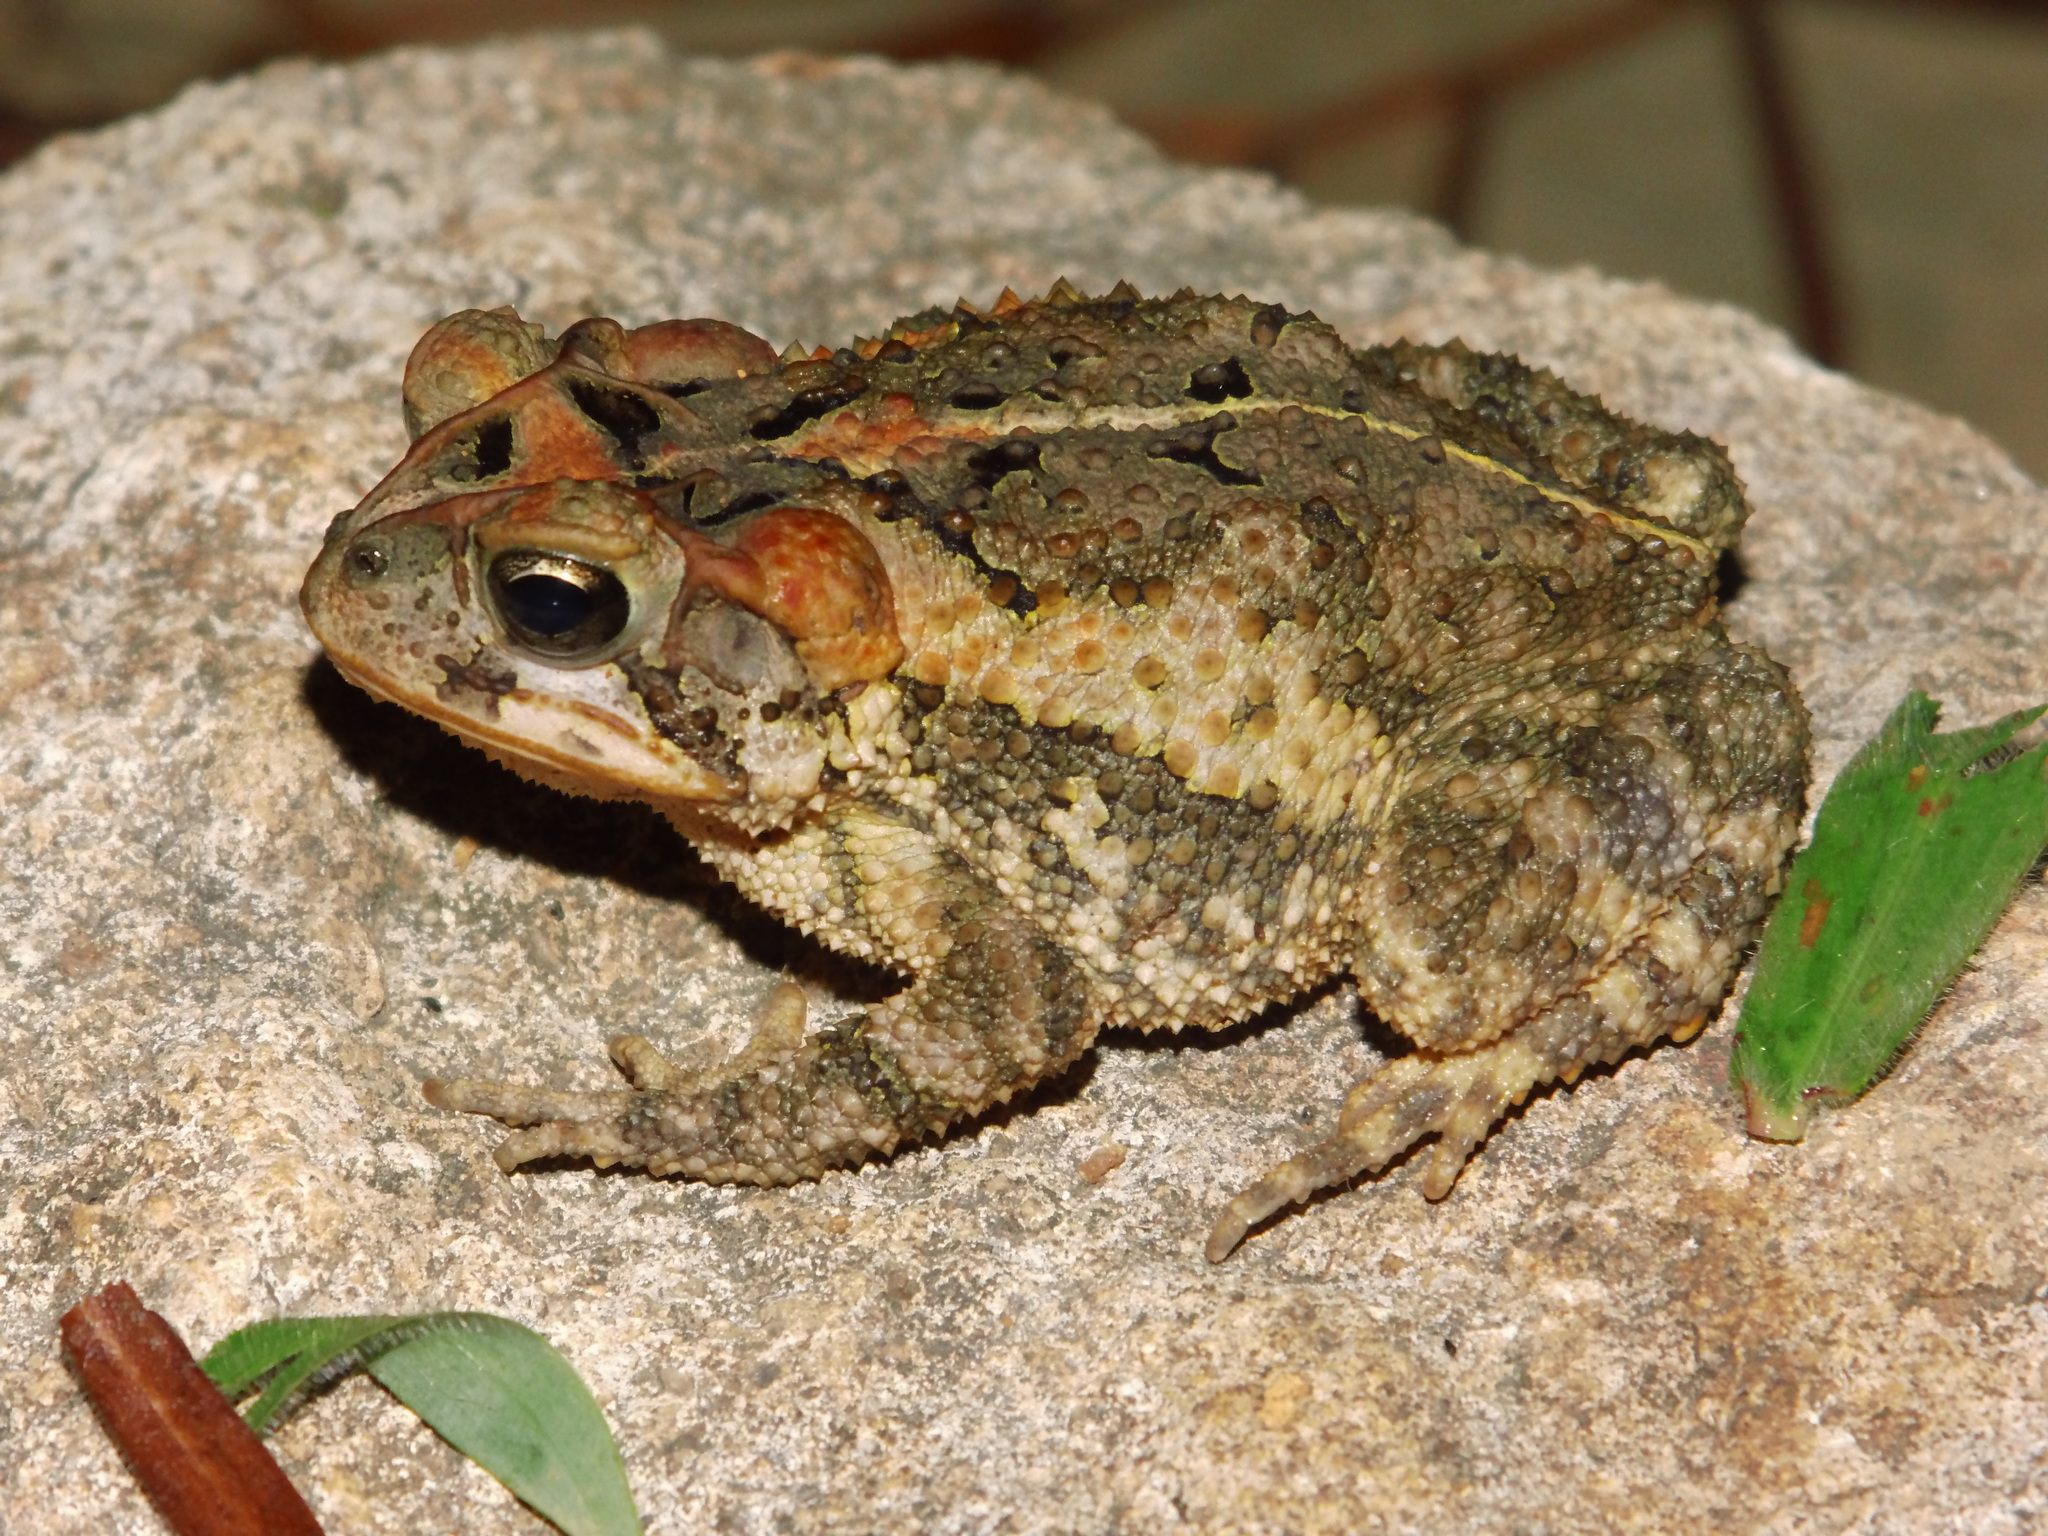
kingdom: Animalia
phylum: Chordata
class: Amphibia
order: Anura
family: Bufonidae
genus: Incilius
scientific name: Incilius porteri
